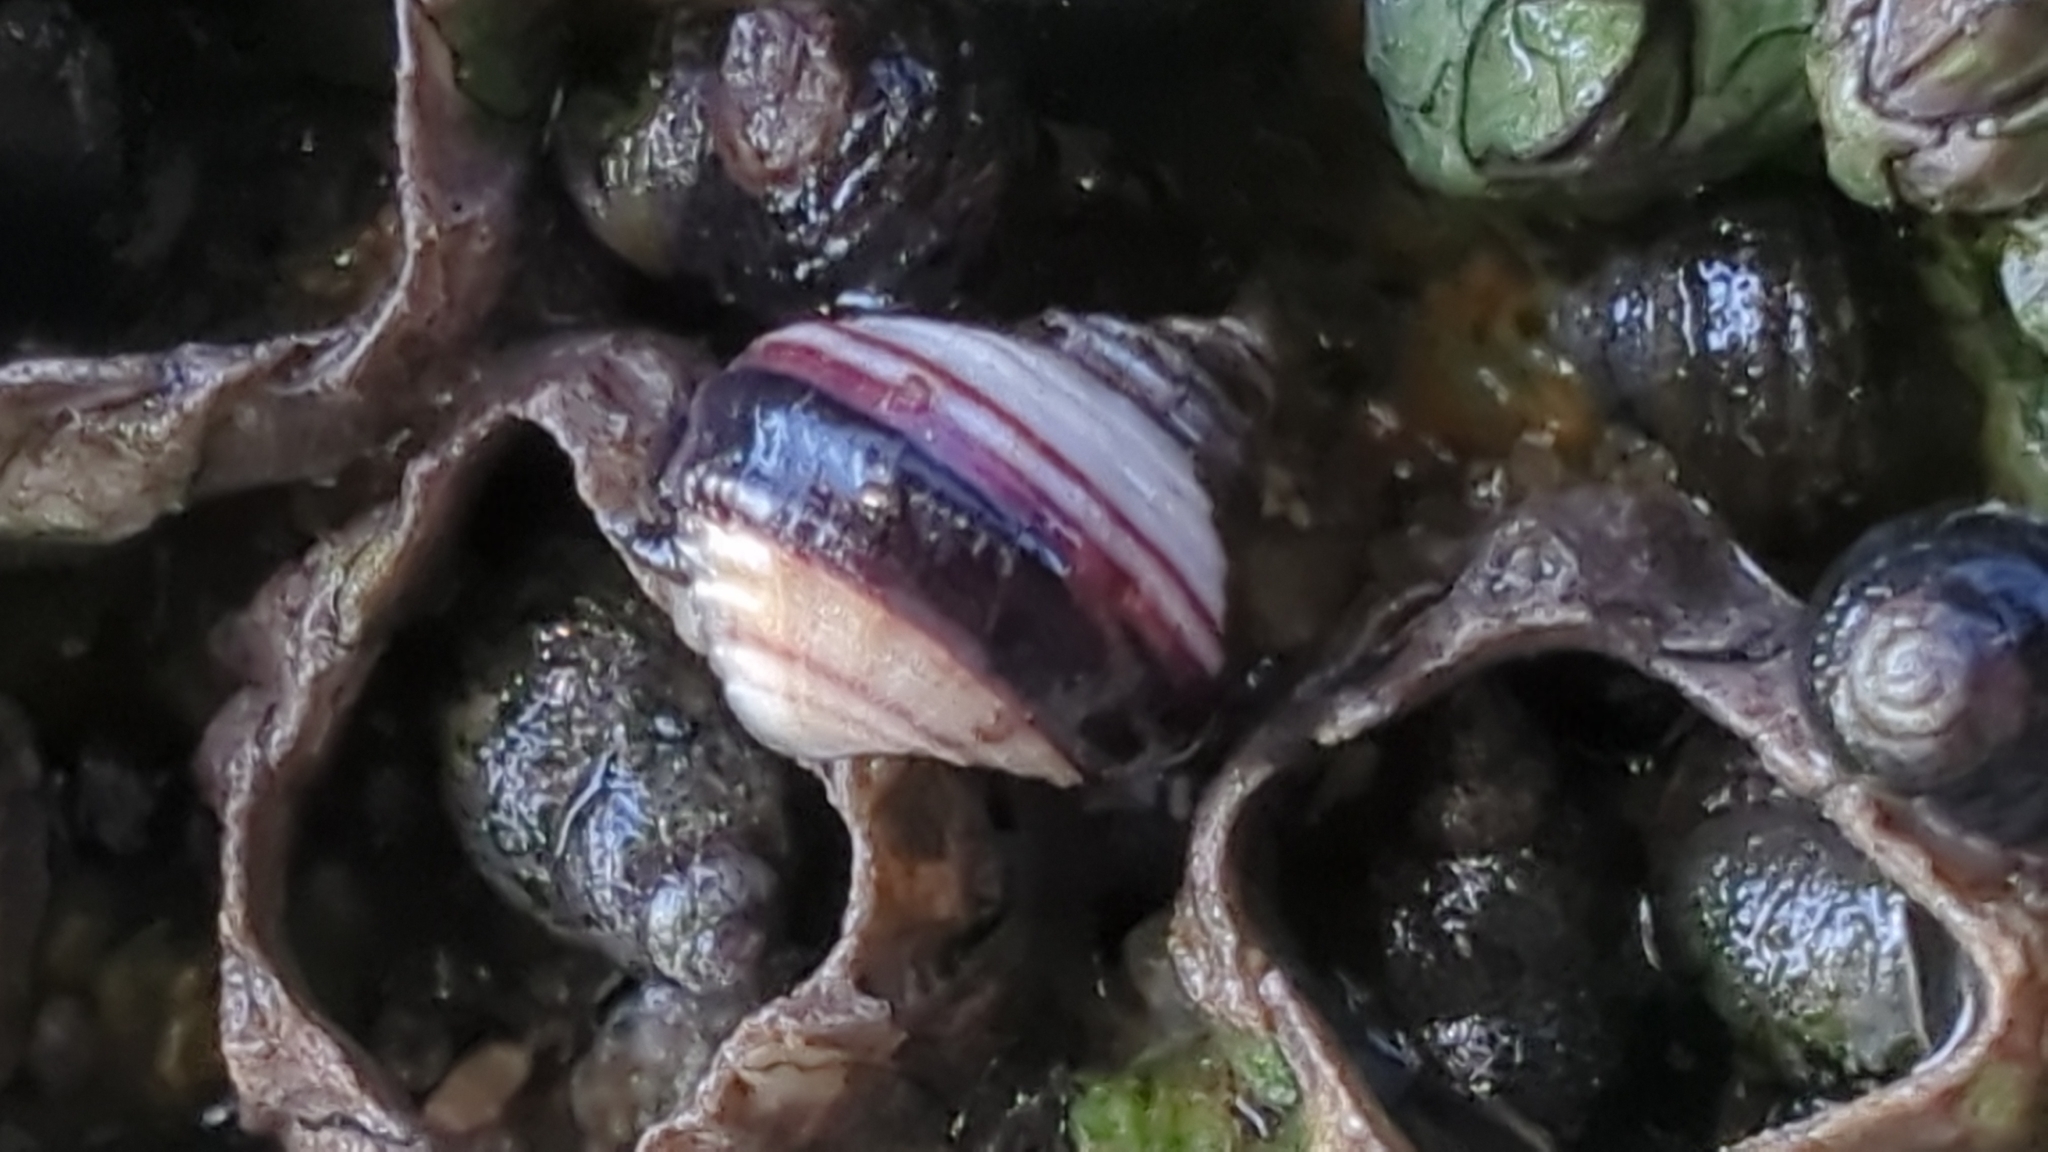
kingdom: Animalia
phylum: Mollusca
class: Gastropoda
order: Littorinimorpha
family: Littorinidae
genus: Littorina
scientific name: Littorina sitkana
